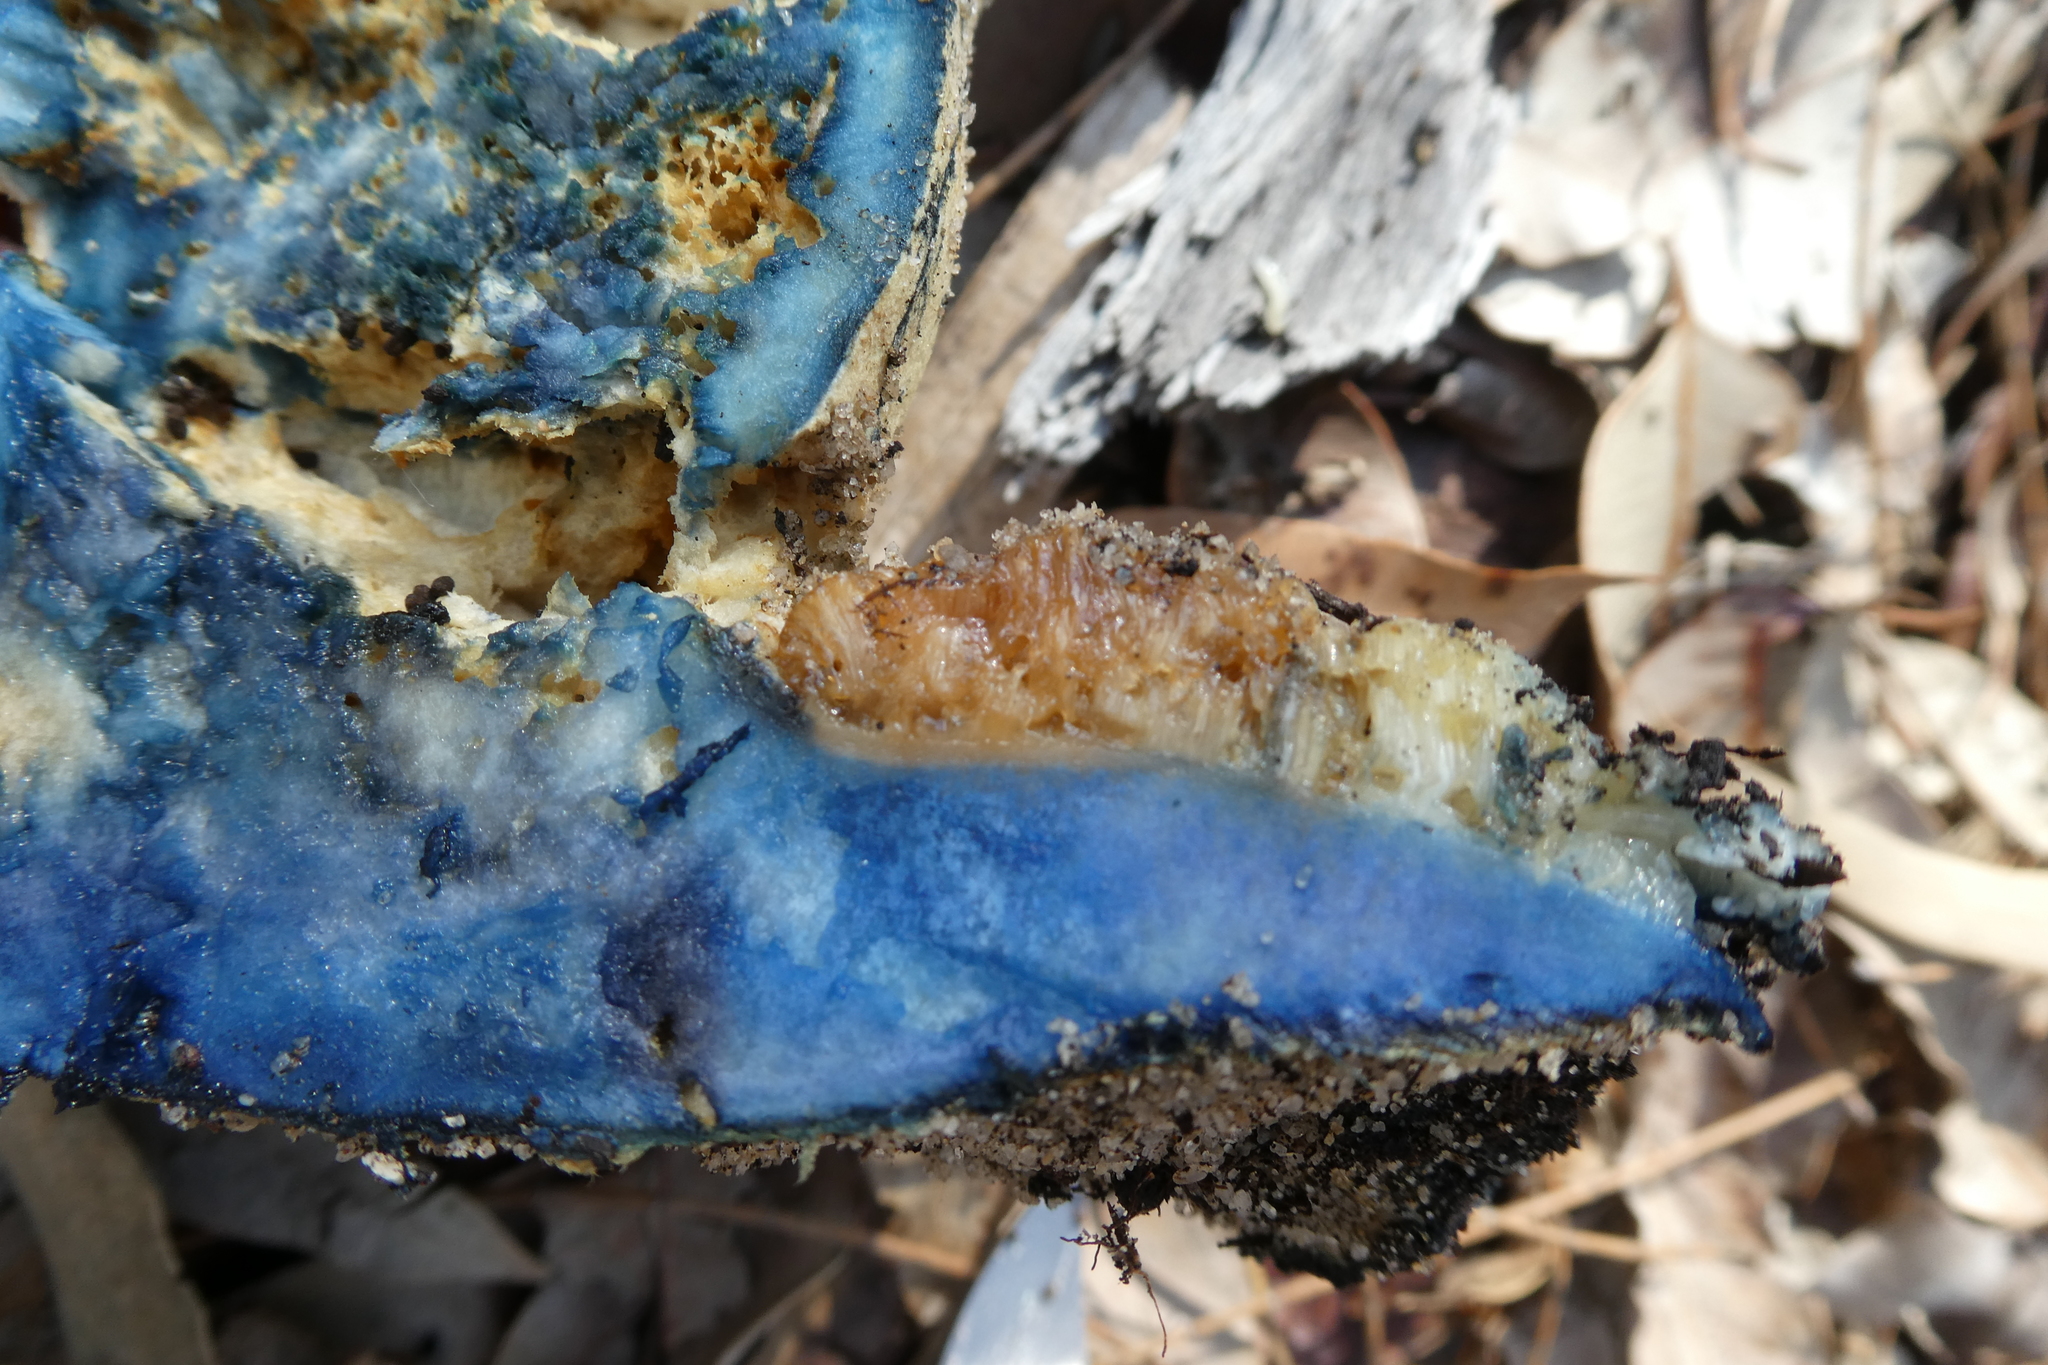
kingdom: Fungi
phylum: Basidiomycota
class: Agaricomycetes
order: Boletales
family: Gyroporaceae
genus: Gyroporus
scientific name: Gyroporus occidentalis
